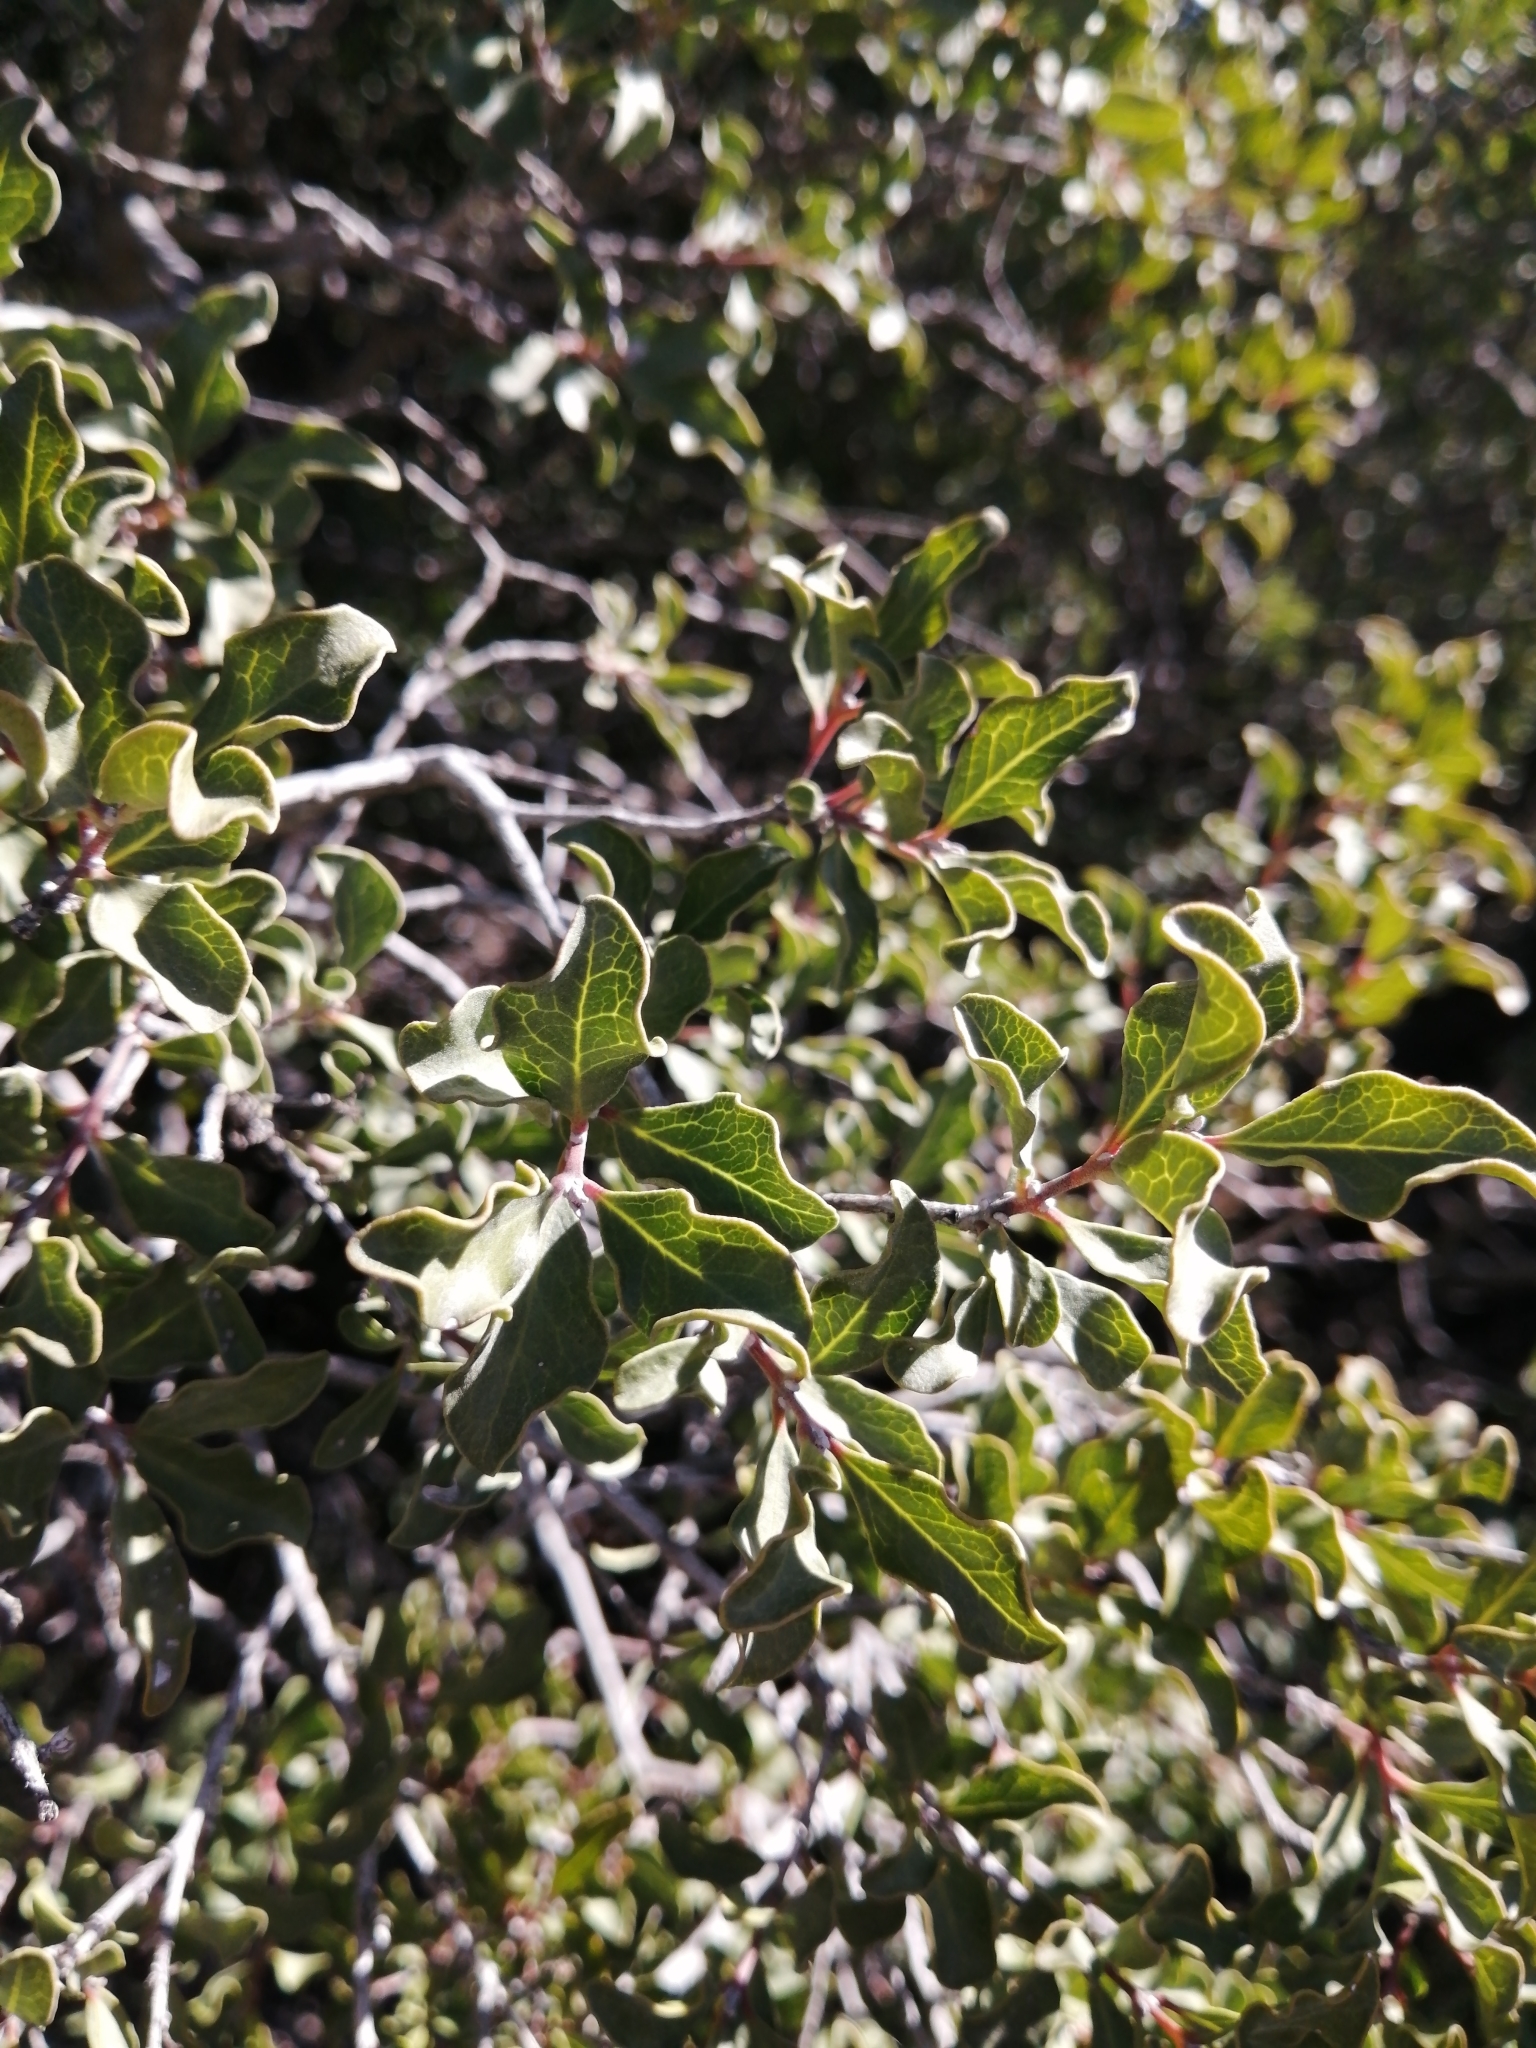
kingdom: Plantae
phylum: Tracheophyta
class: Magnoliopsida
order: Ericales
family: Ebenaceae
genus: Euclea
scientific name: Euclea undulata
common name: Small-leaved guarri
